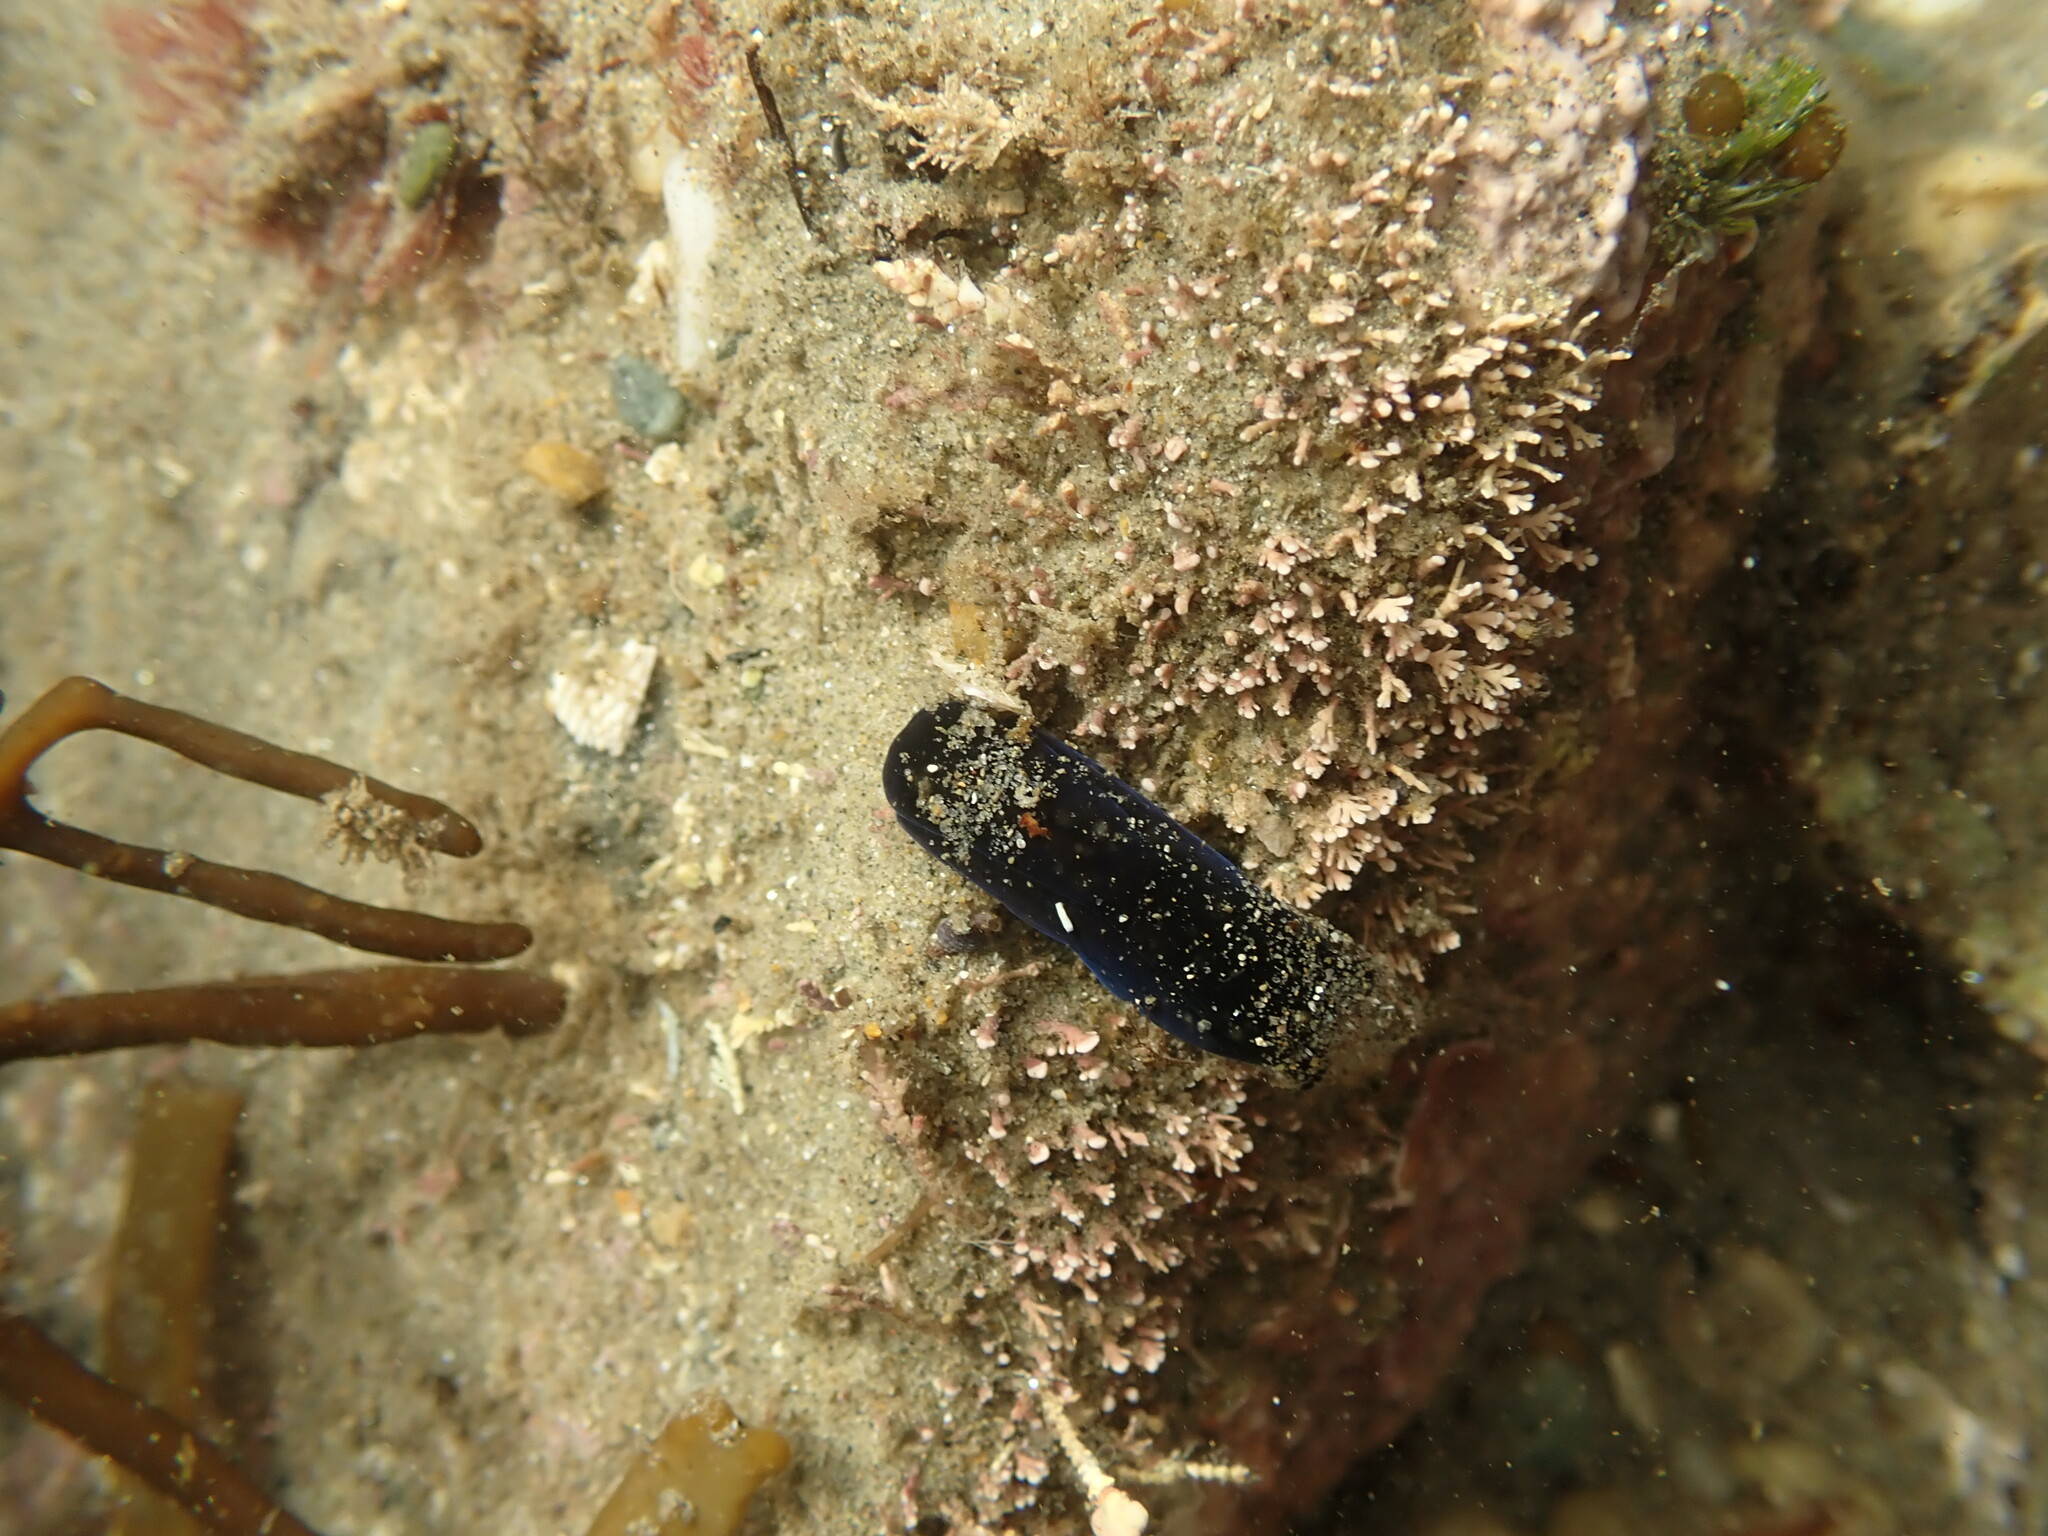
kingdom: Animalia
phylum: Mollusca
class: Gastropoda
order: Cephalaspidea
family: Aglajidae
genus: Melanochlamys
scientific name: Melanochlamys cylindrica
